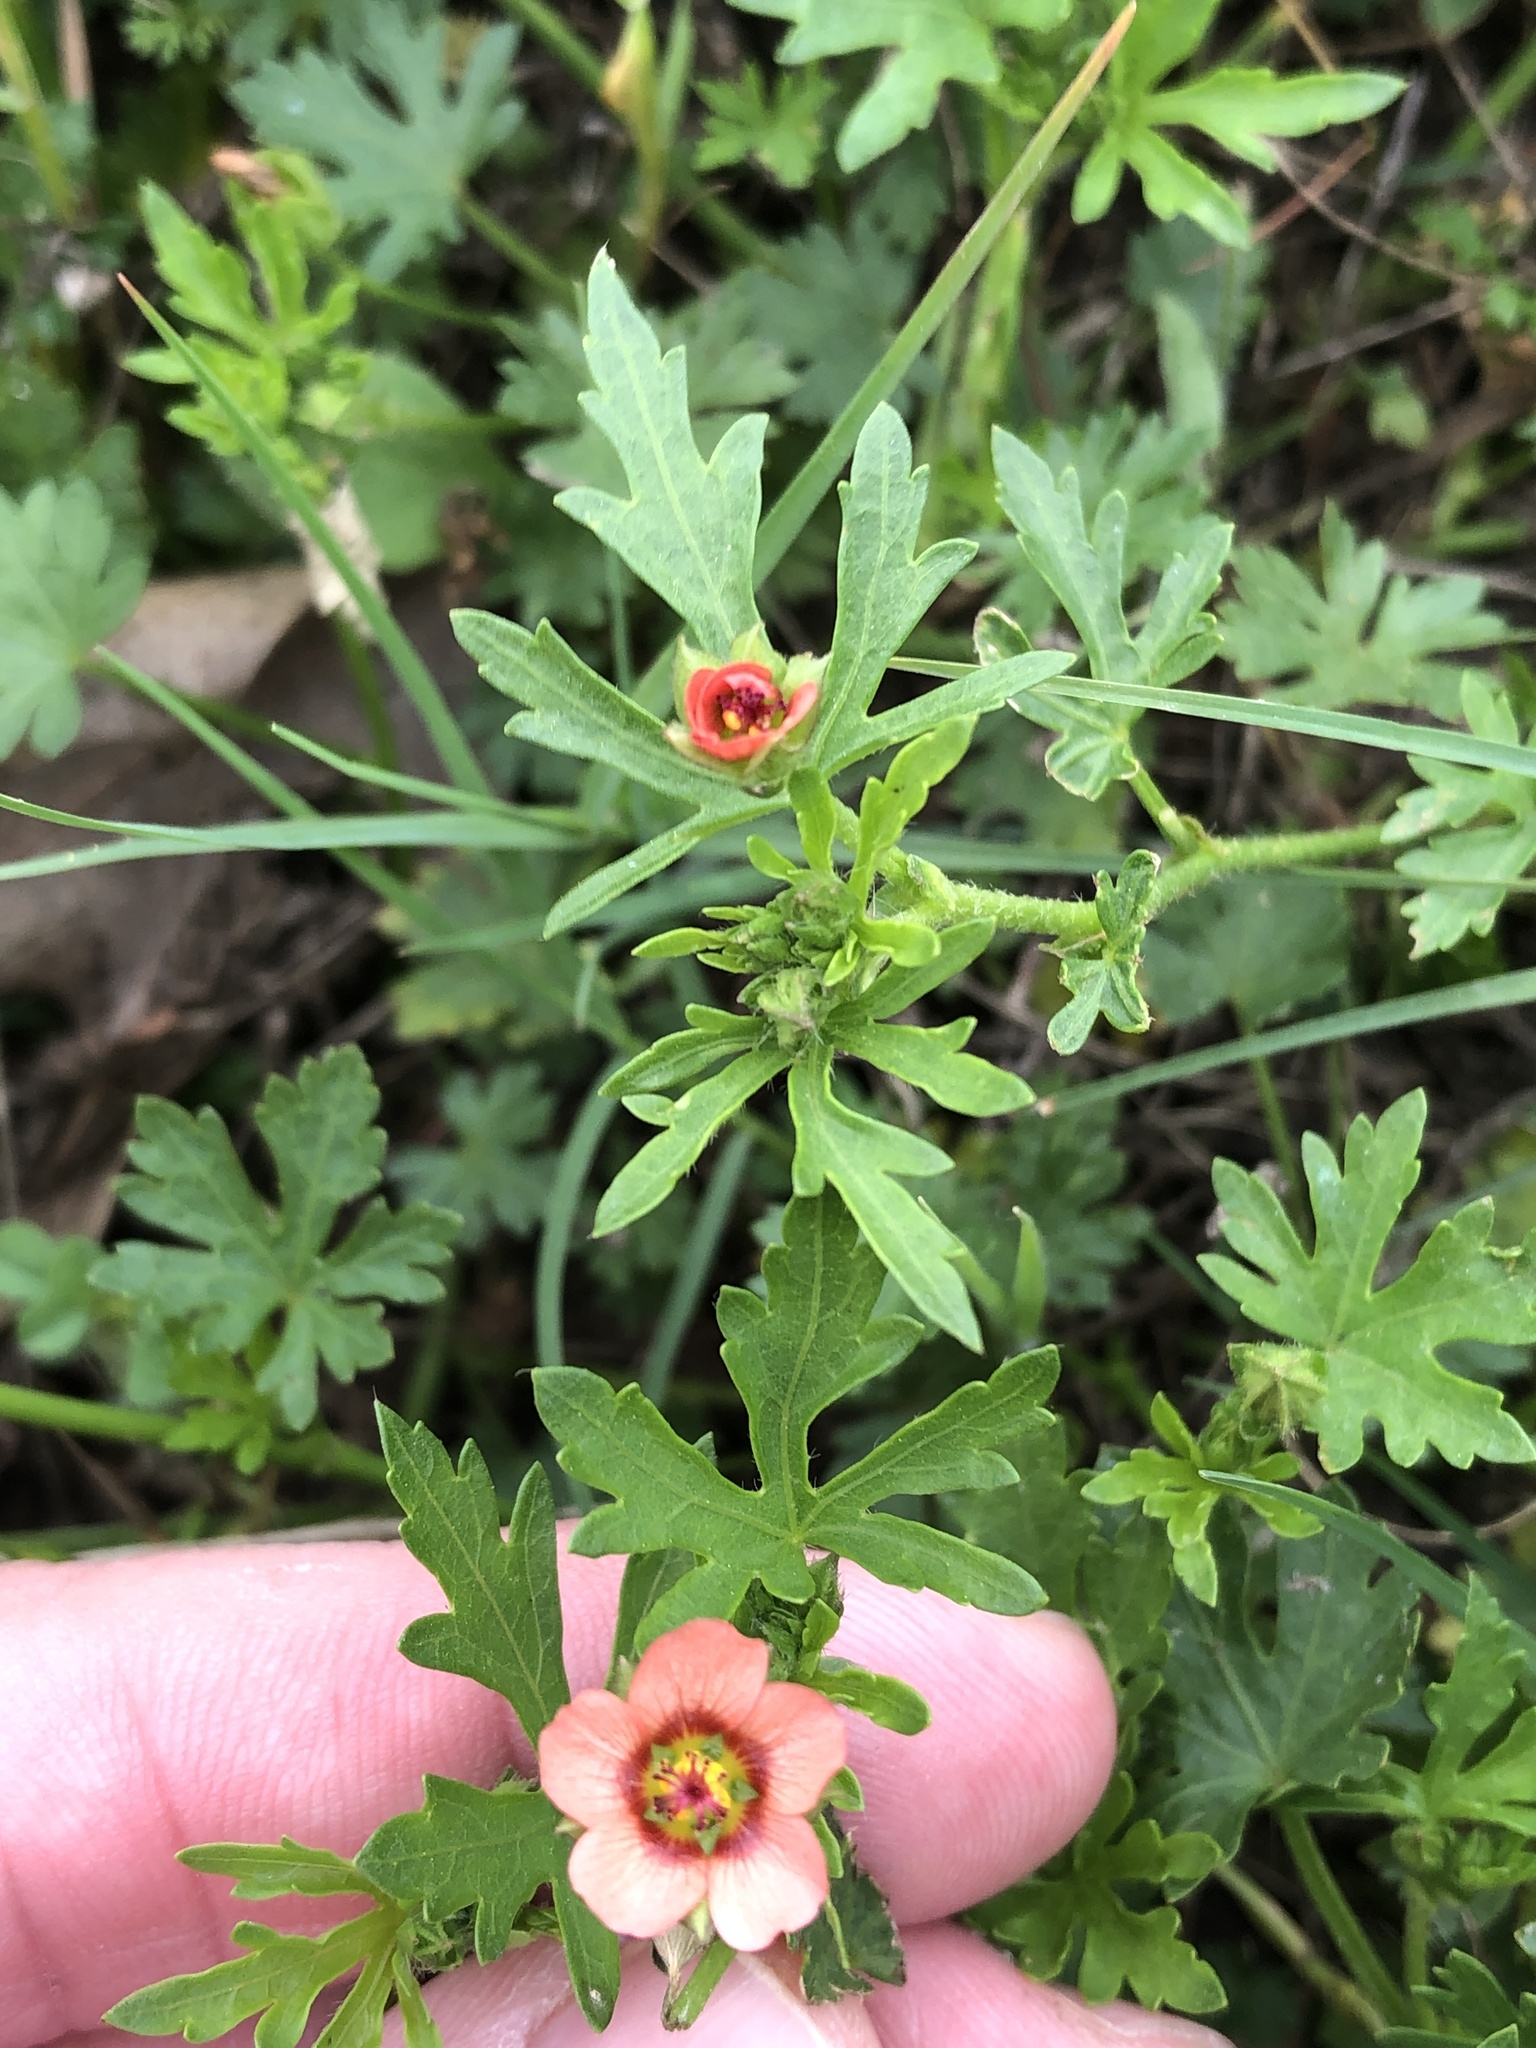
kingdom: Plantae
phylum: Tracheophyta
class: Magnoliopsida
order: Malvales
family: Malvaceae
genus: Modiola
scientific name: Modiola caroliniana
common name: Carolina bristlemallow
